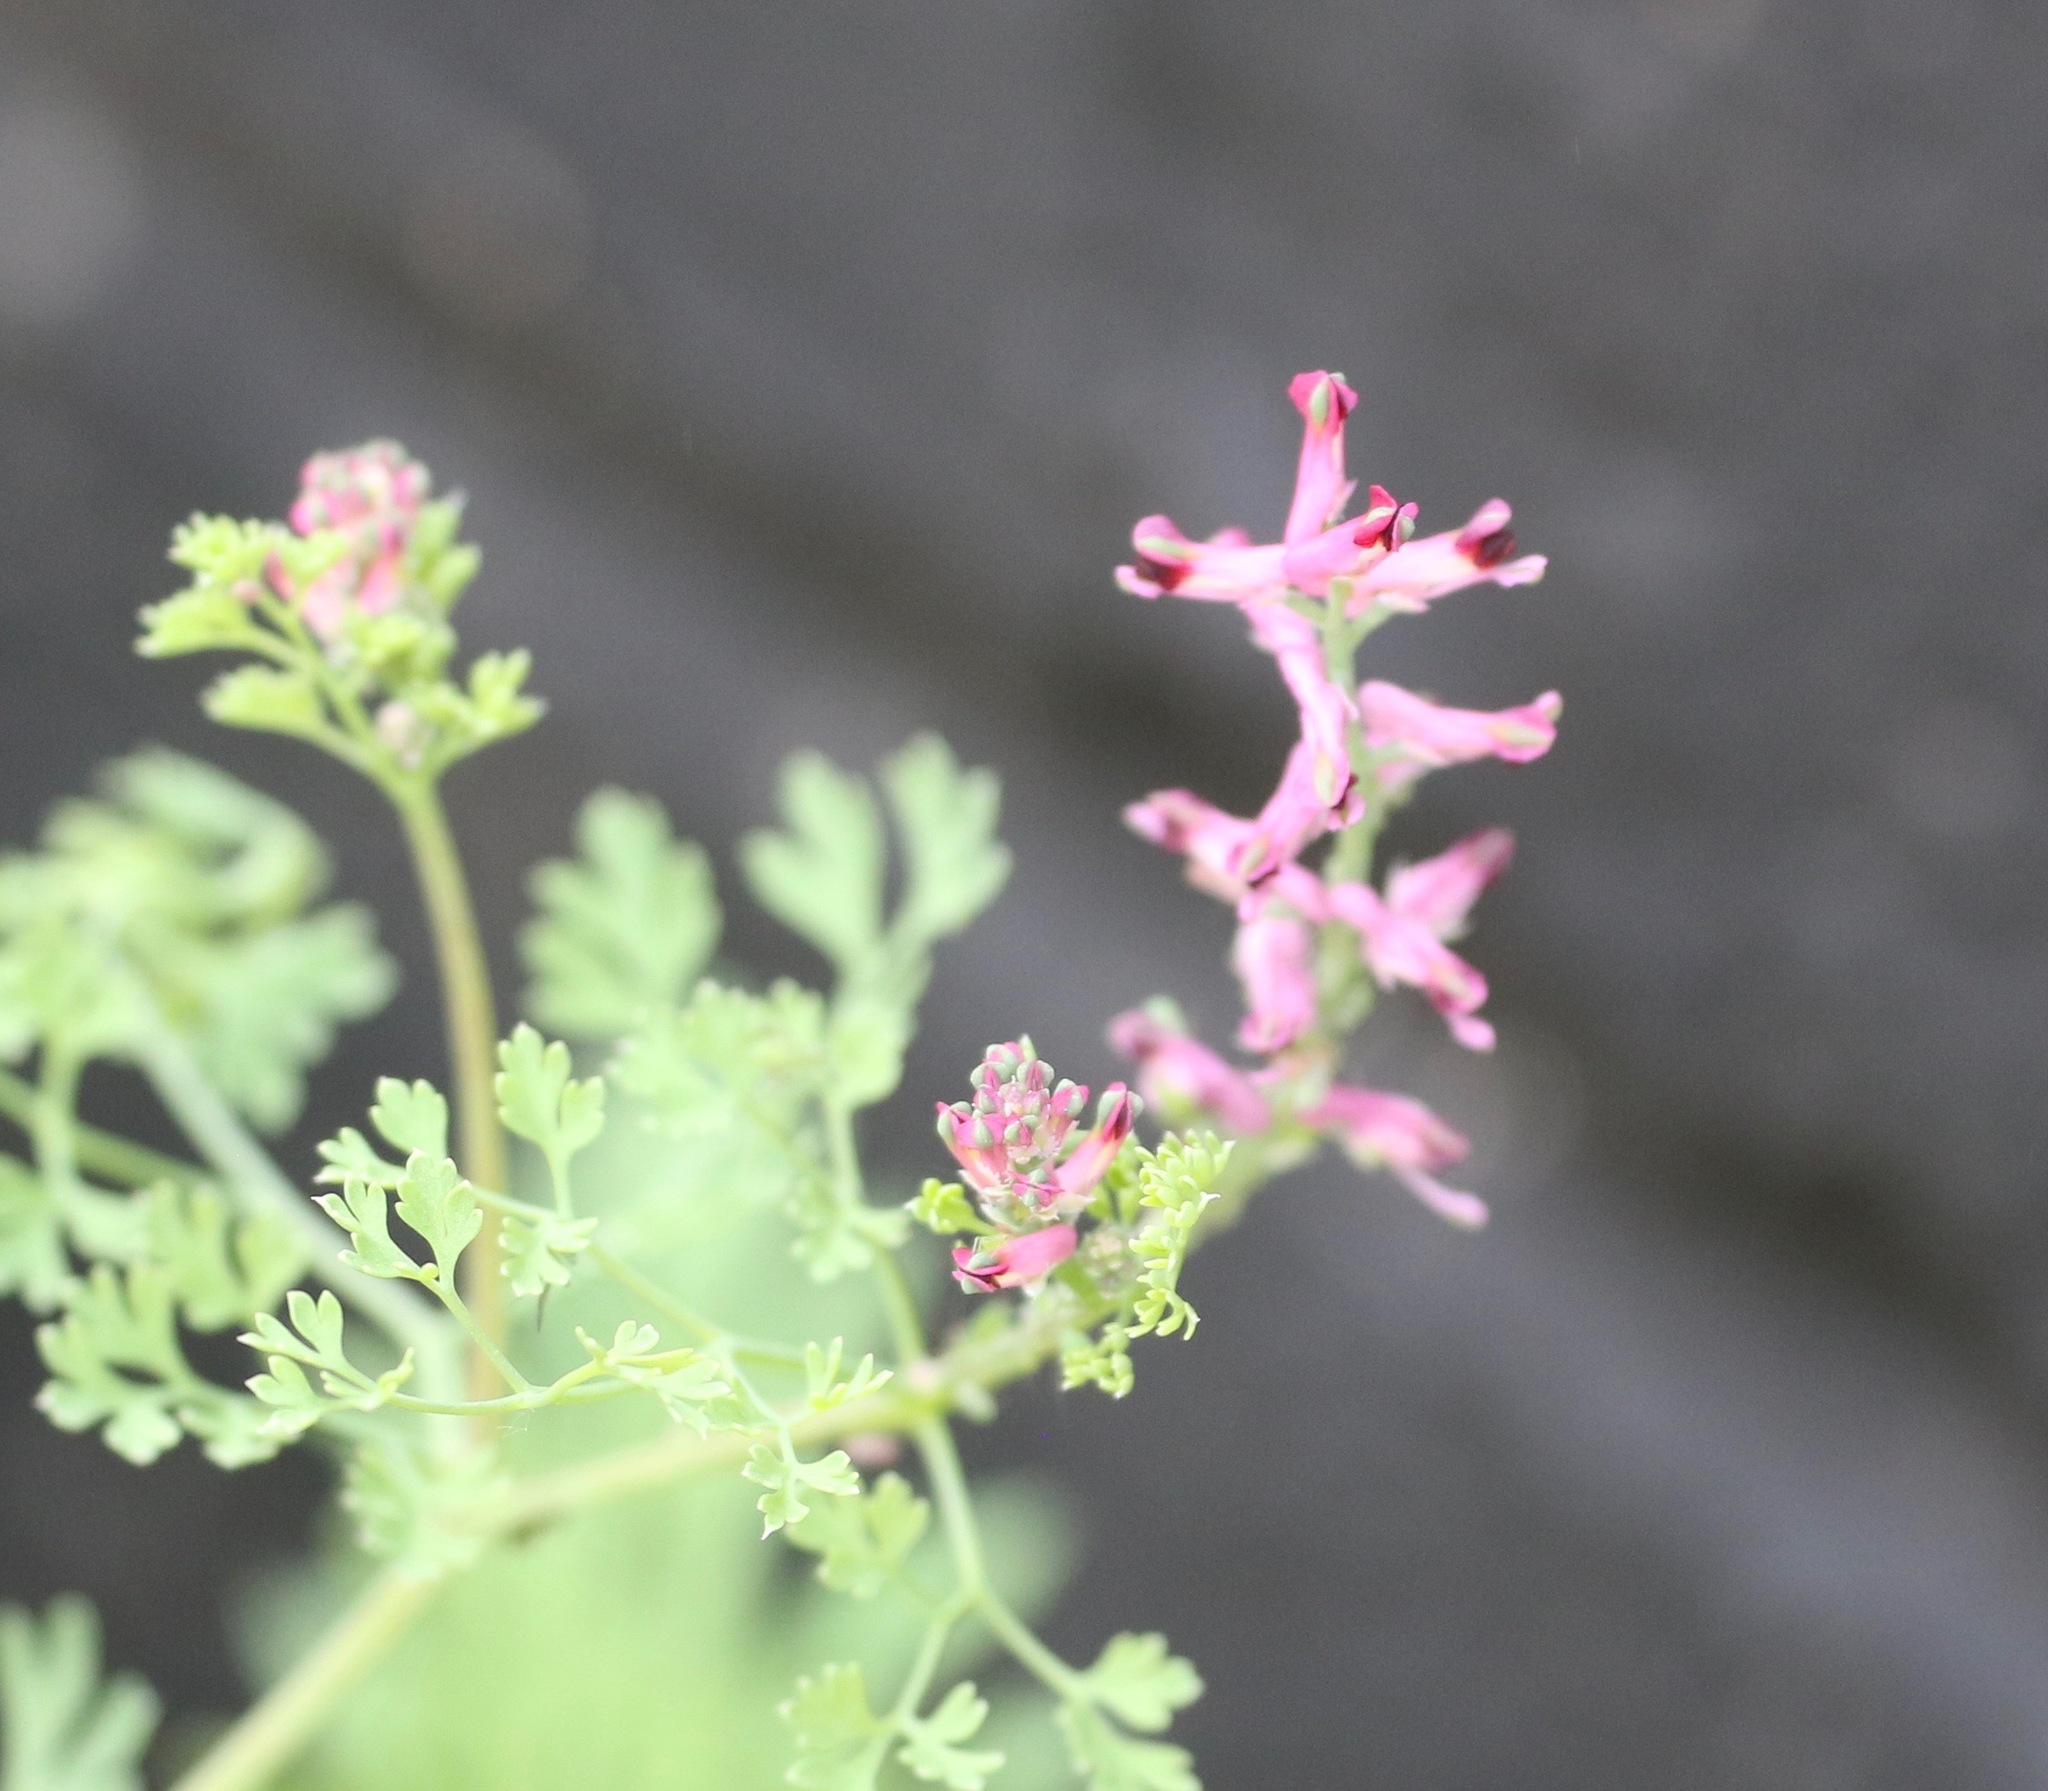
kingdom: Plantae
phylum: Tracheophyta
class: Magnoliopsida
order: Ranunculales
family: Papaveraceae
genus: Fumaria
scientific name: Fumaria officinalis
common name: Common fumitory
